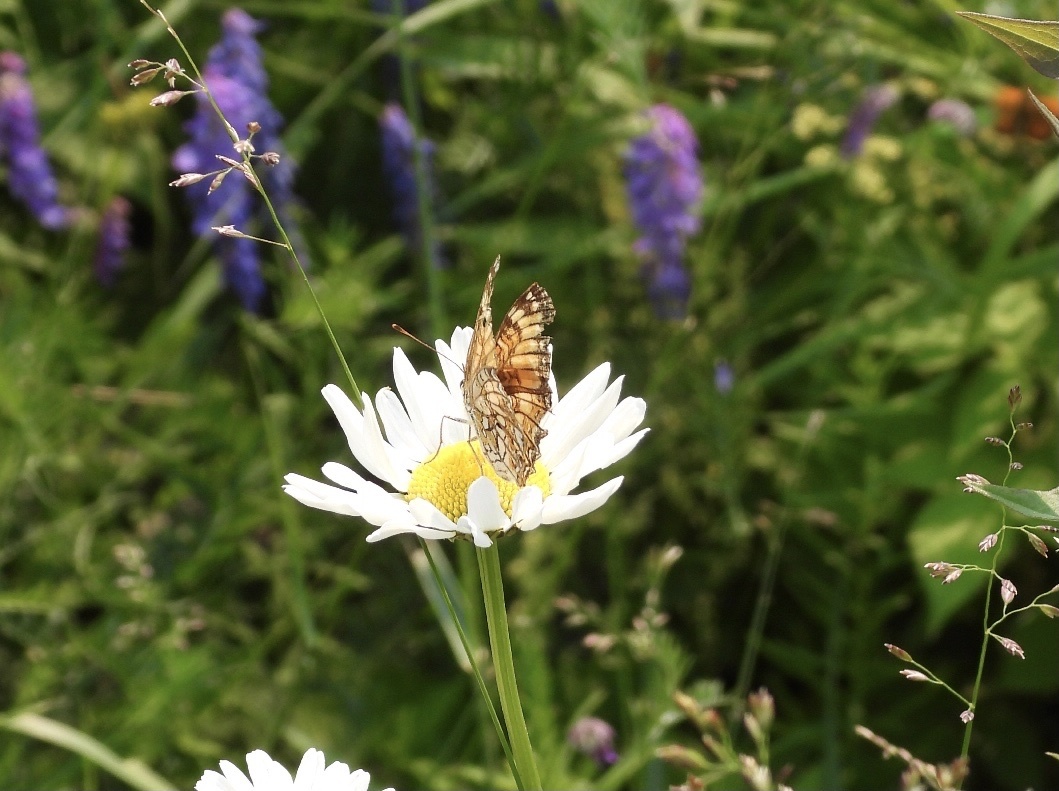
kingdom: Animalia
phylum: Arthropoda
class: Insecta
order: Lepidoptera
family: Nymphalidae
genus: Chlosyne
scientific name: Chlosyne harrisii
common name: Harris's checkerspot
